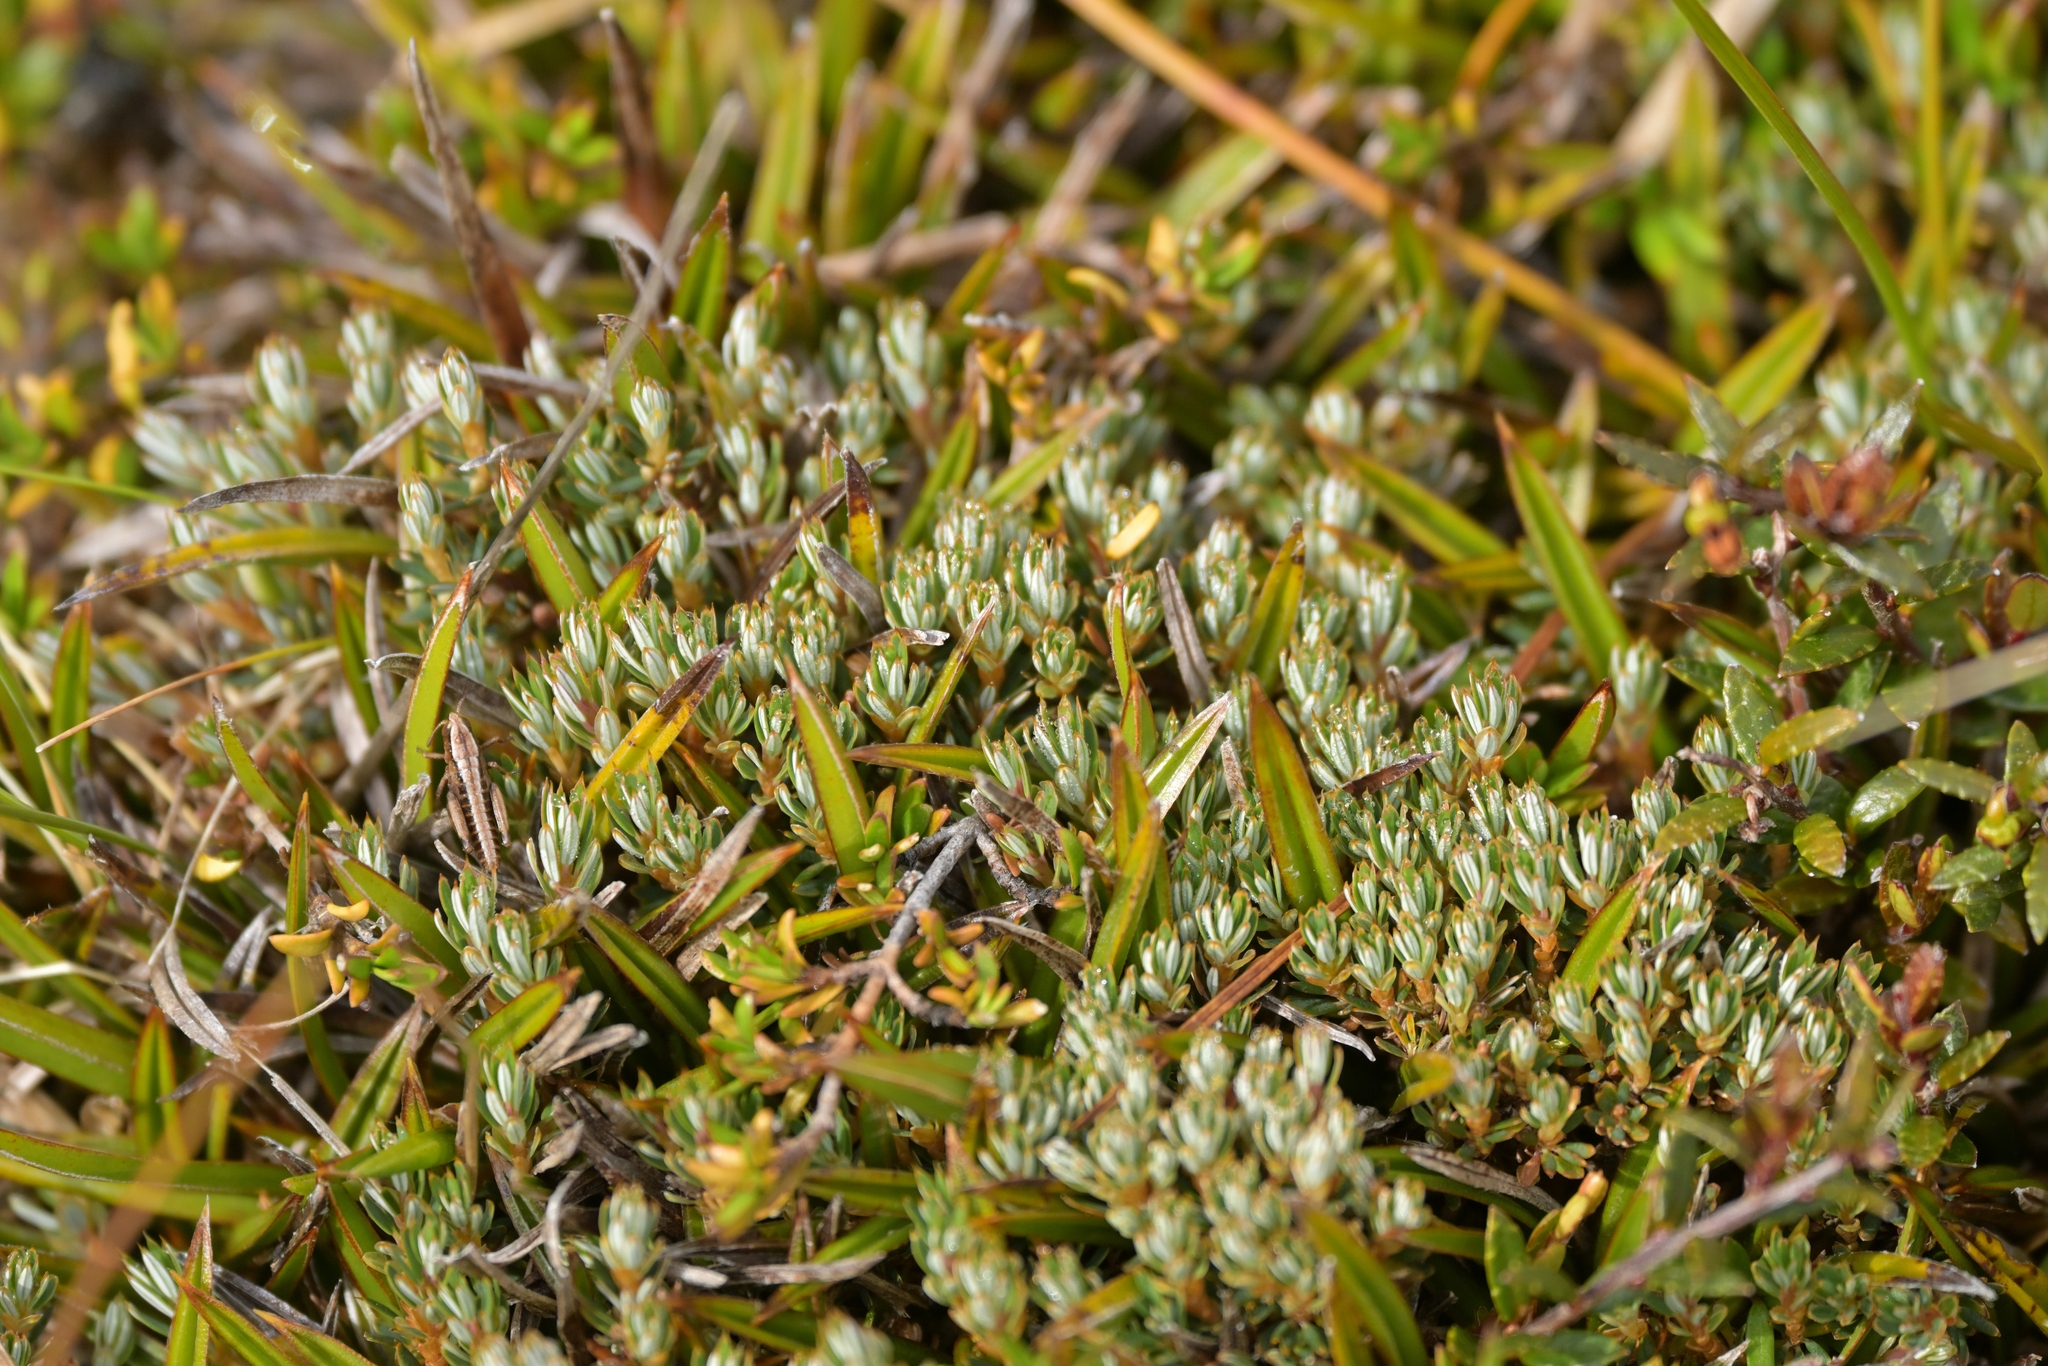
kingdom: Plantae
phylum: Tracheophyta
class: Magnoliopsida
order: Ericales
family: Ericaceae
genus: Montitega
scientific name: Montitega dealbata
